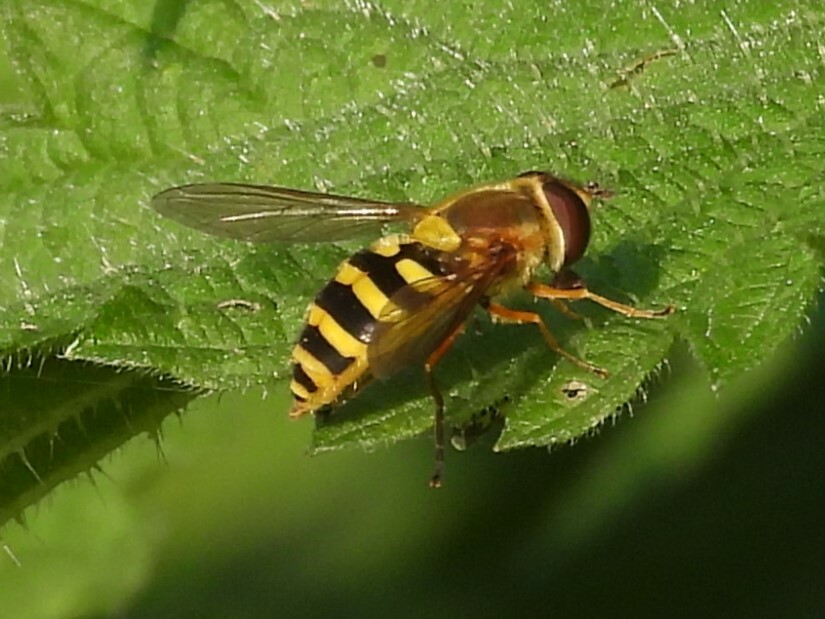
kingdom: Animalia
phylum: Arthropoda
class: Insecta
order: Diptera
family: Syrphidae
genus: Syrphus
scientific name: Syrphus ribesii
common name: Common flower fly
